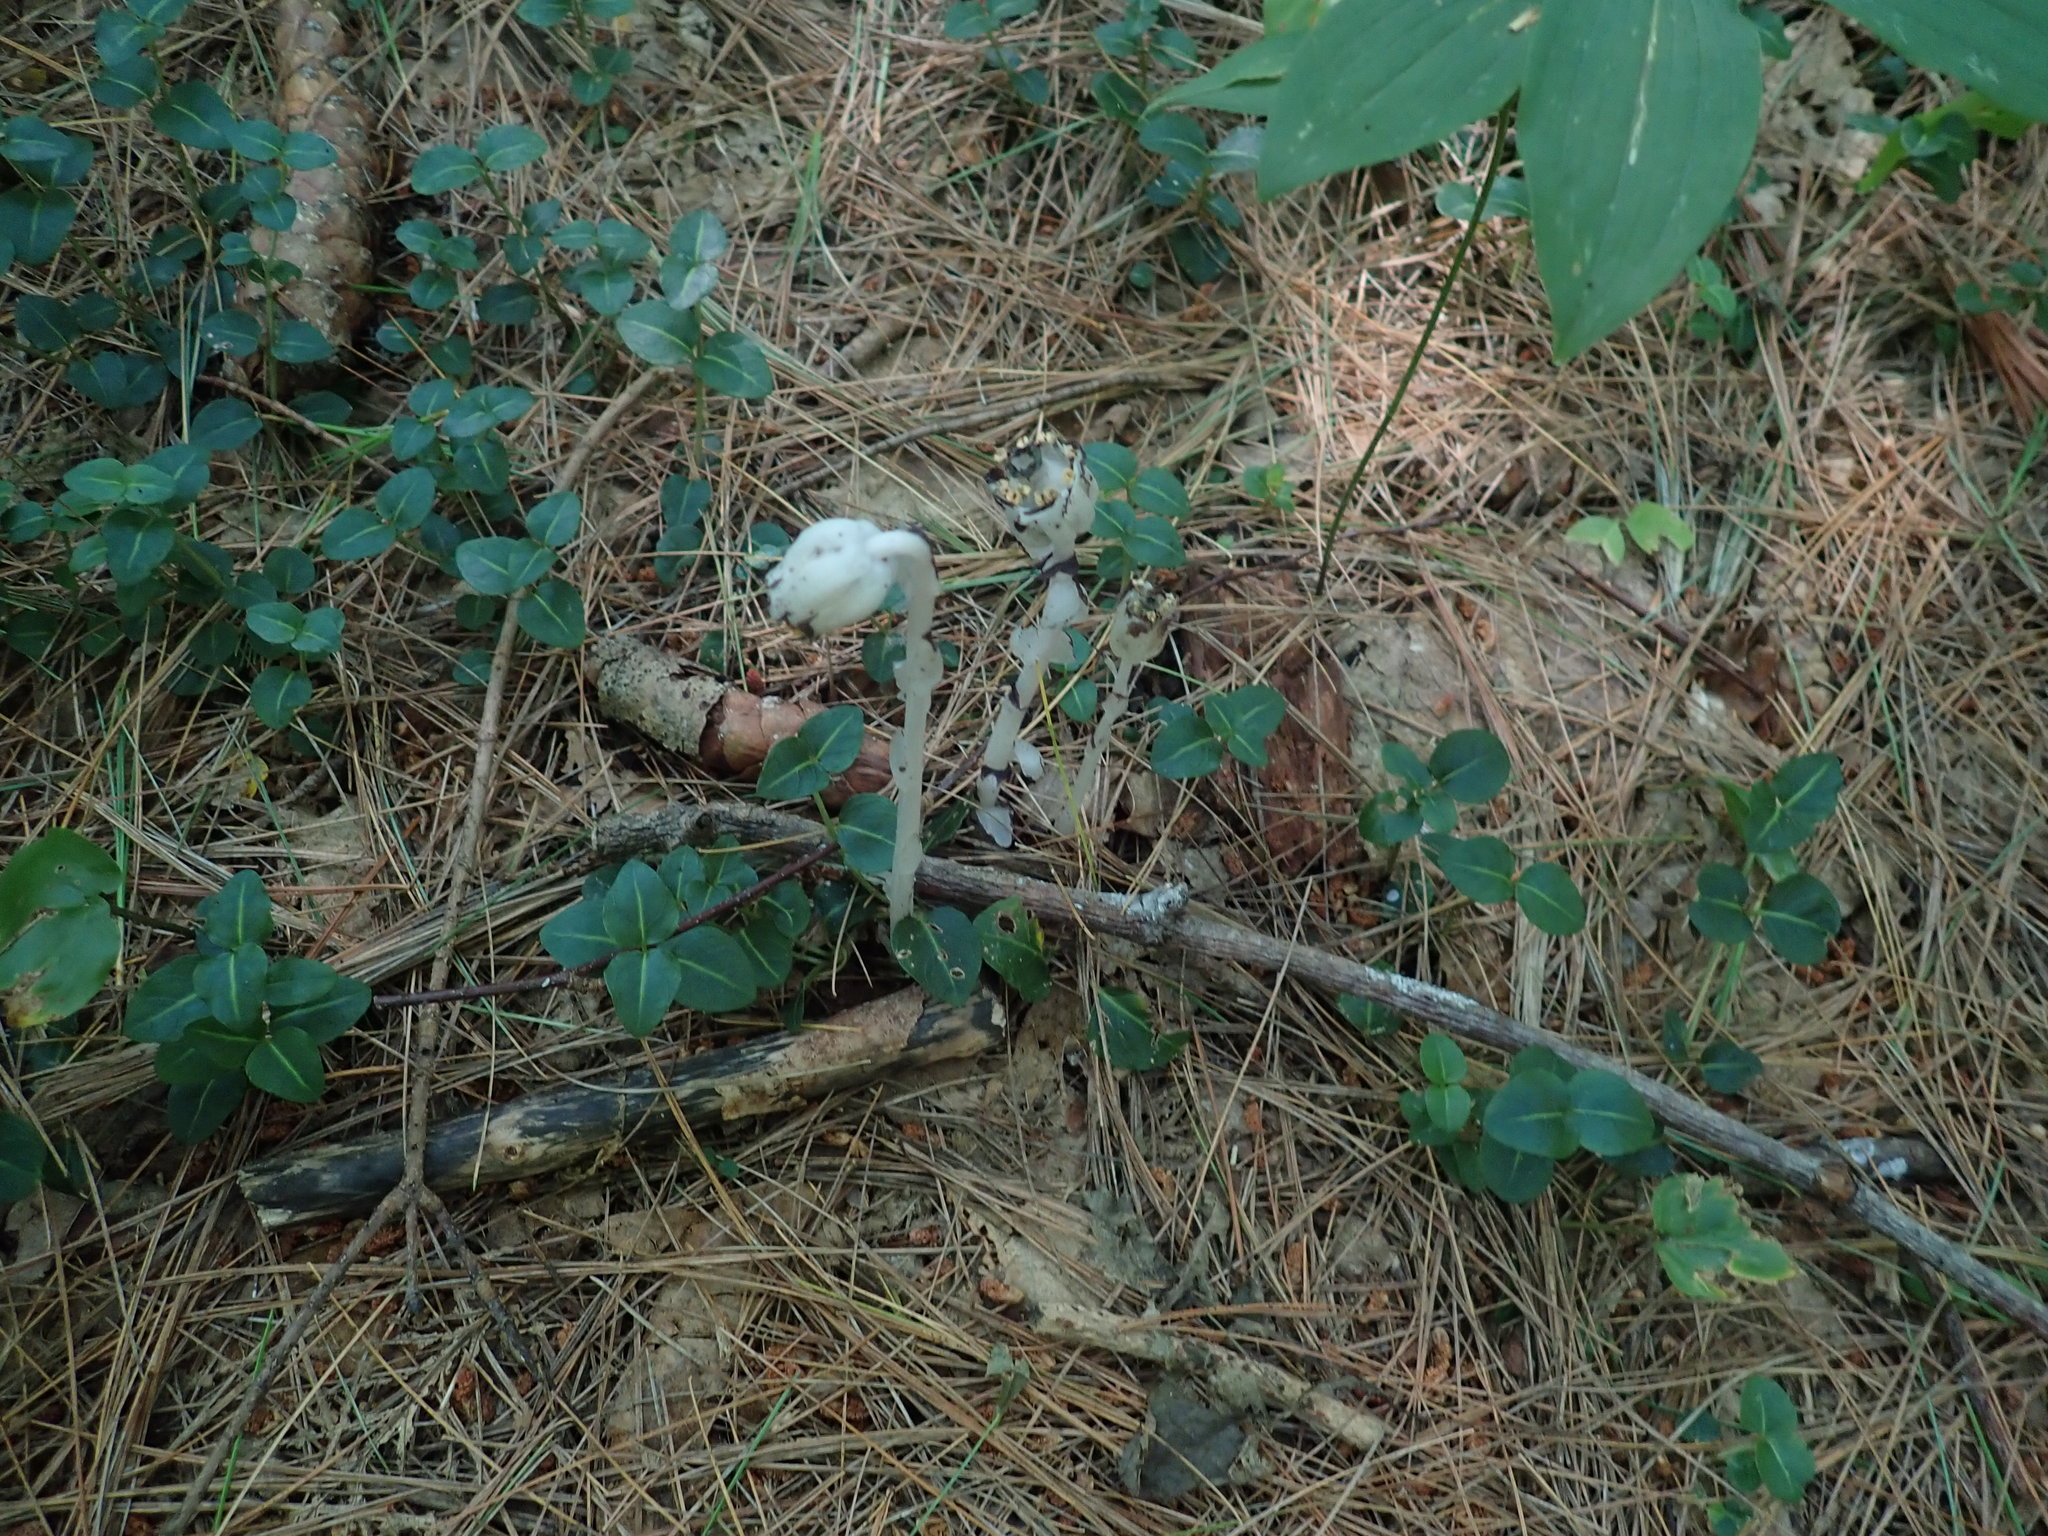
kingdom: Plantae
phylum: Tracheophyta
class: Magnoliopsida
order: Ericales
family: Ericaceae
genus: Monotropa
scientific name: Monotropa uniflora
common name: Convulsion root
